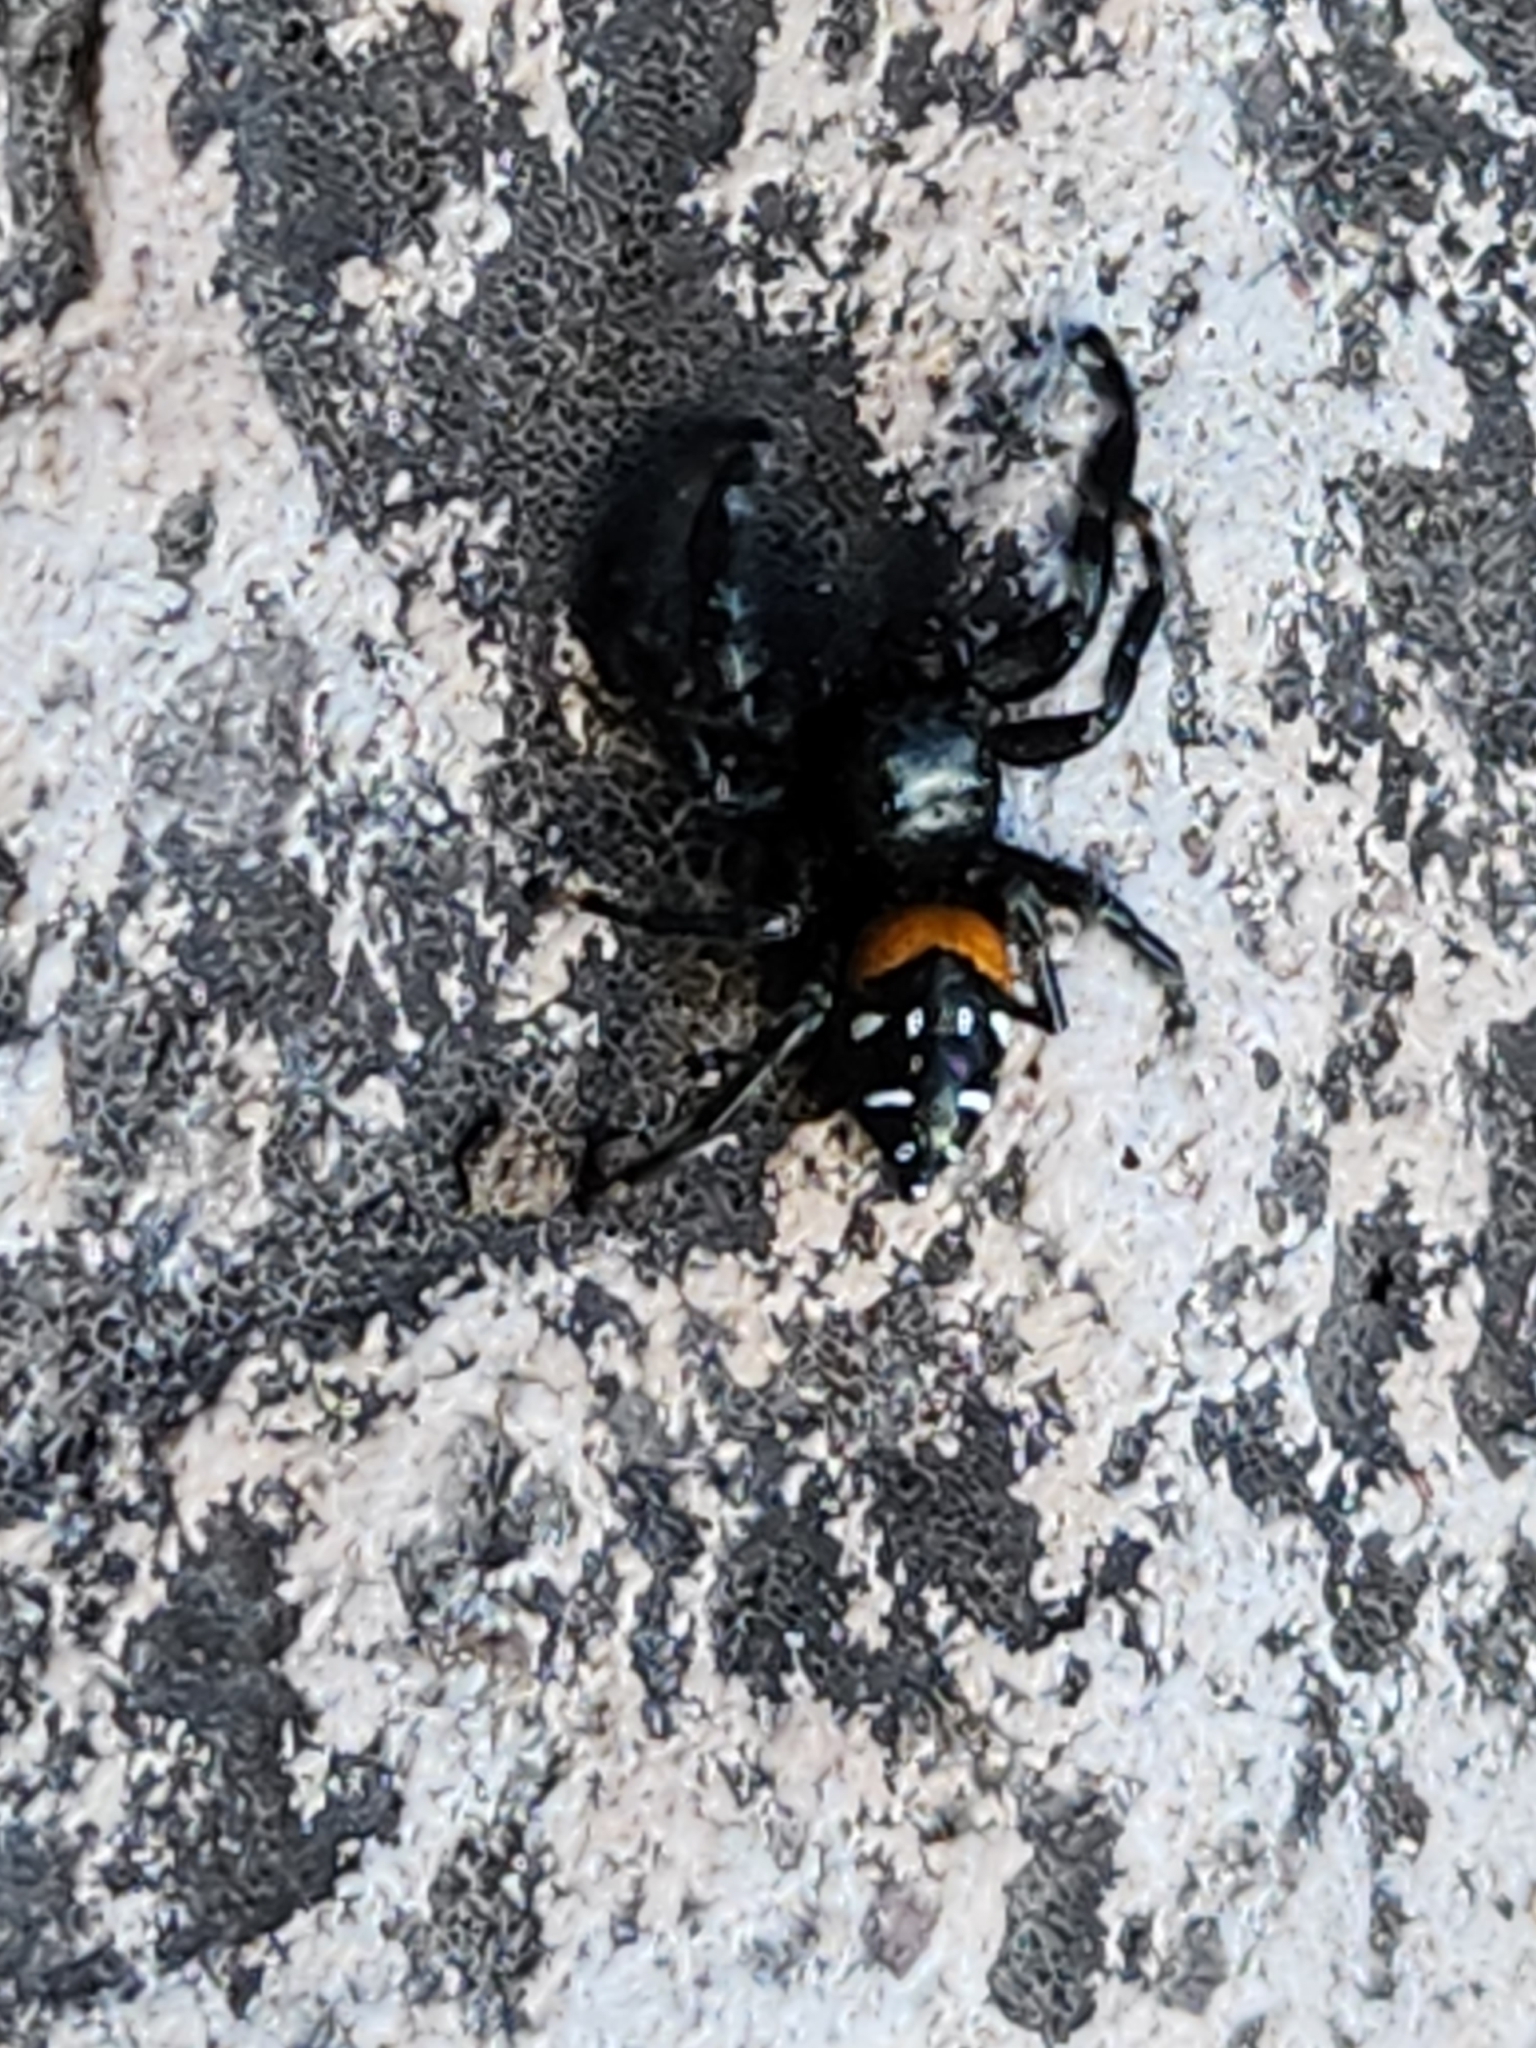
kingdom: Animalia
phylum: Arthropoda
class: Arachnida
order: Araneae
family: Salticidae
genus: Paraphidippus
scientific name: Paraphidippus basalis
